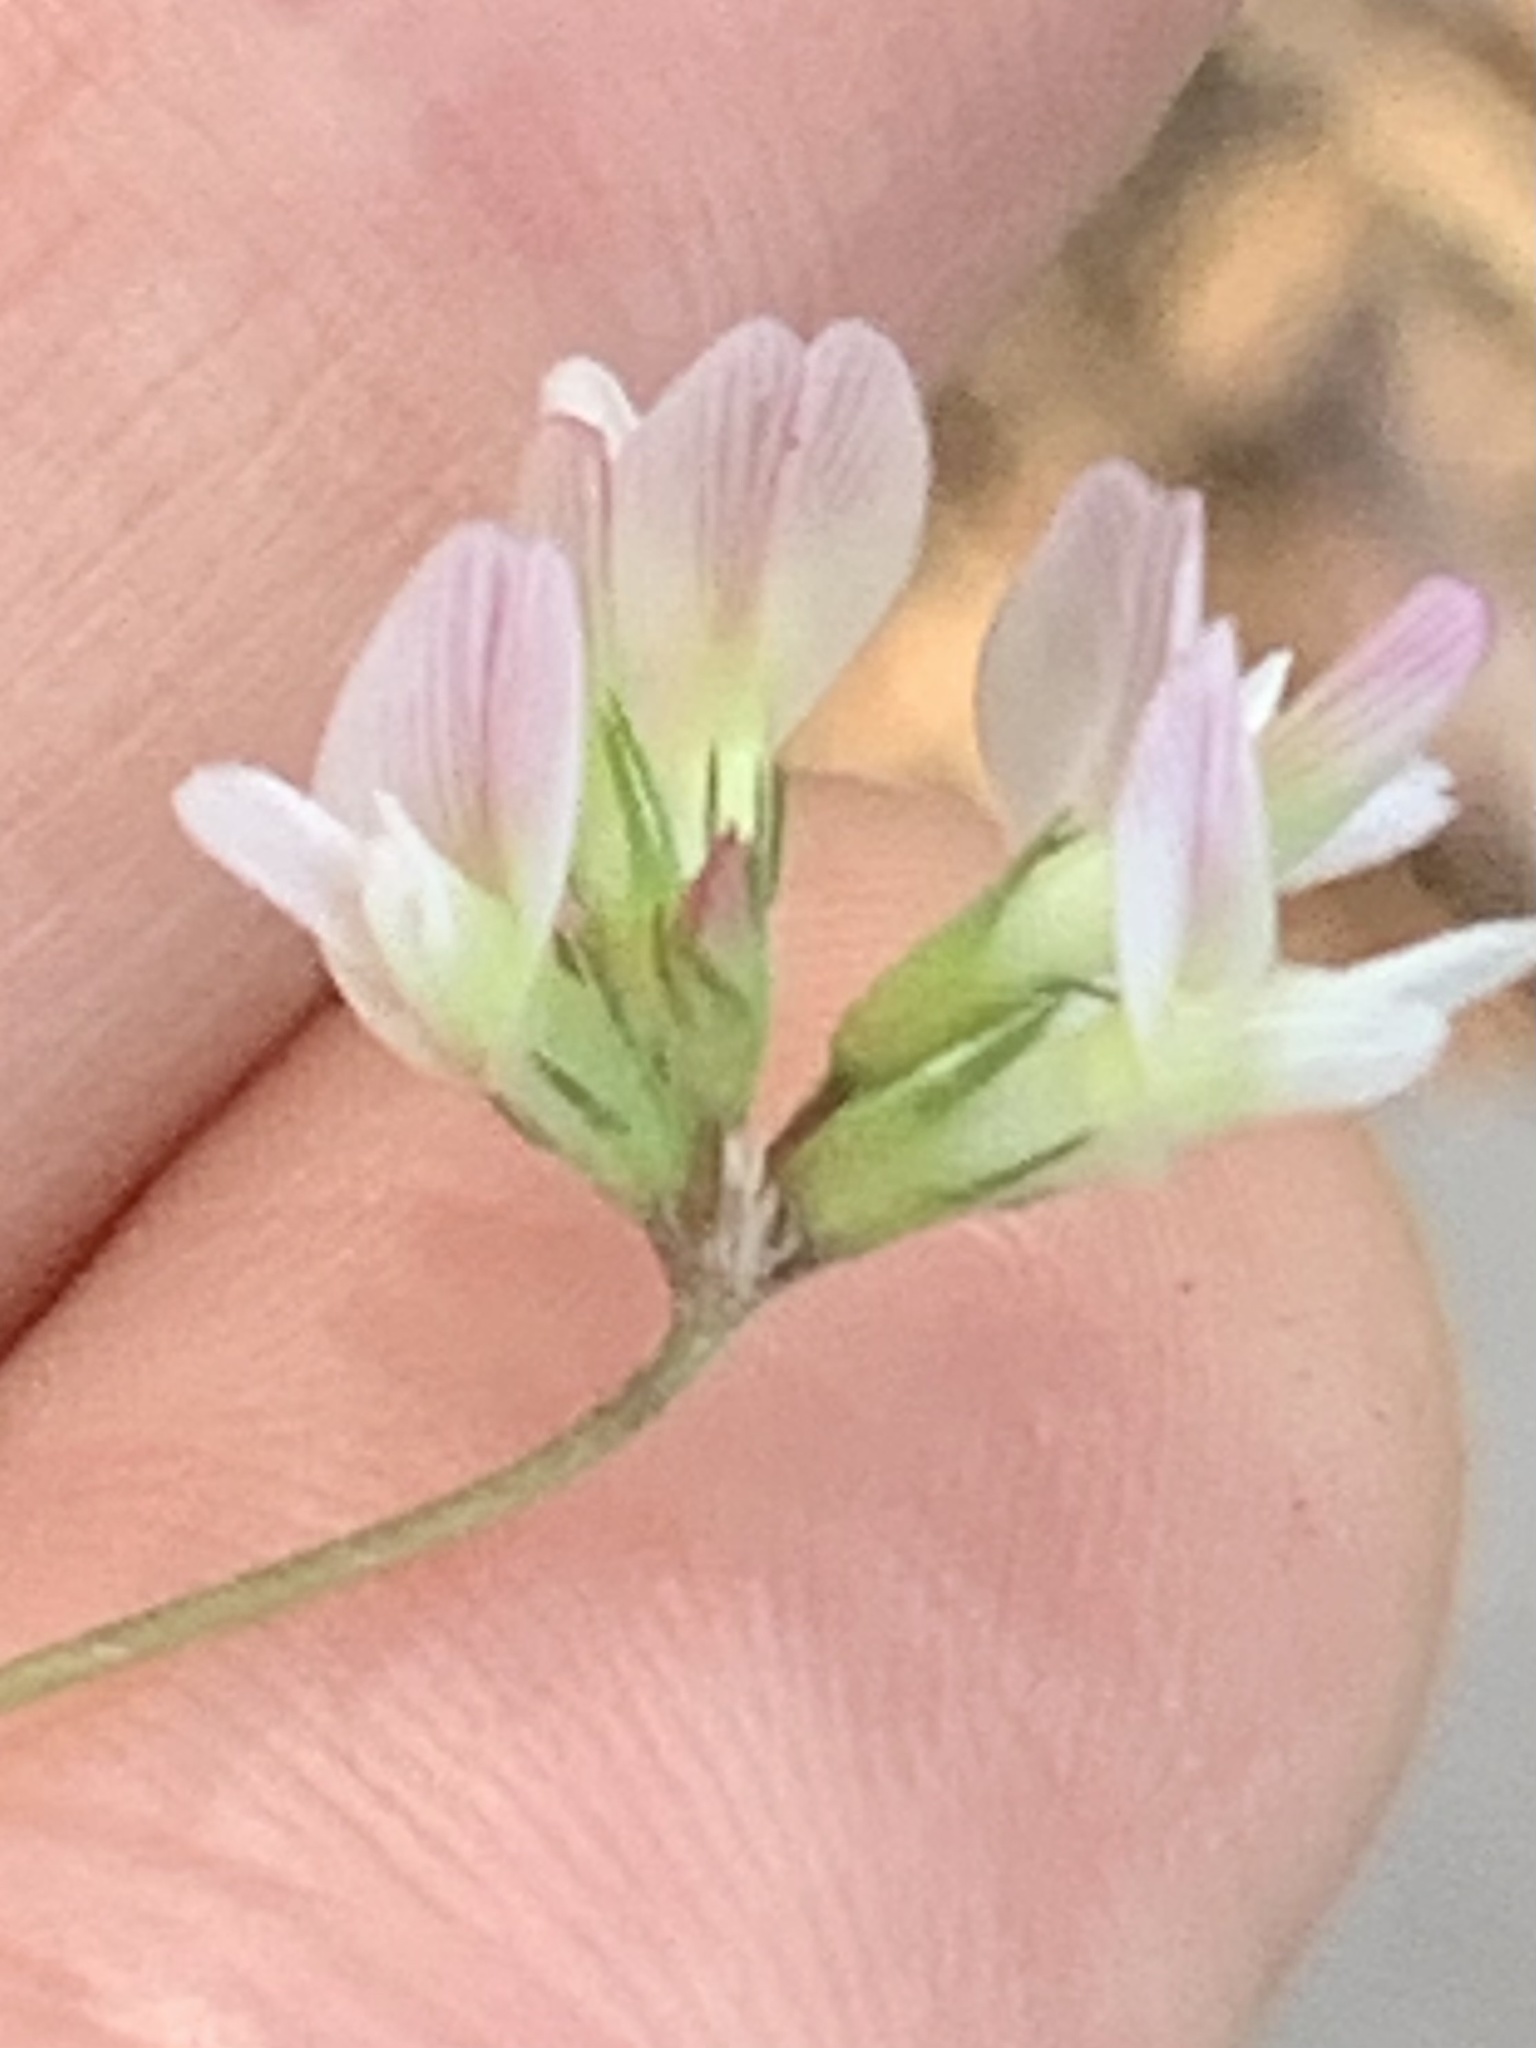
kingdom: Plantae
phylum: Tracheophyta
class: Magnoliopsida
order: Fabales
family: Fabaceae
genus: Trifolium
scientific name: Trifolium breweri
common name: Forest clover
